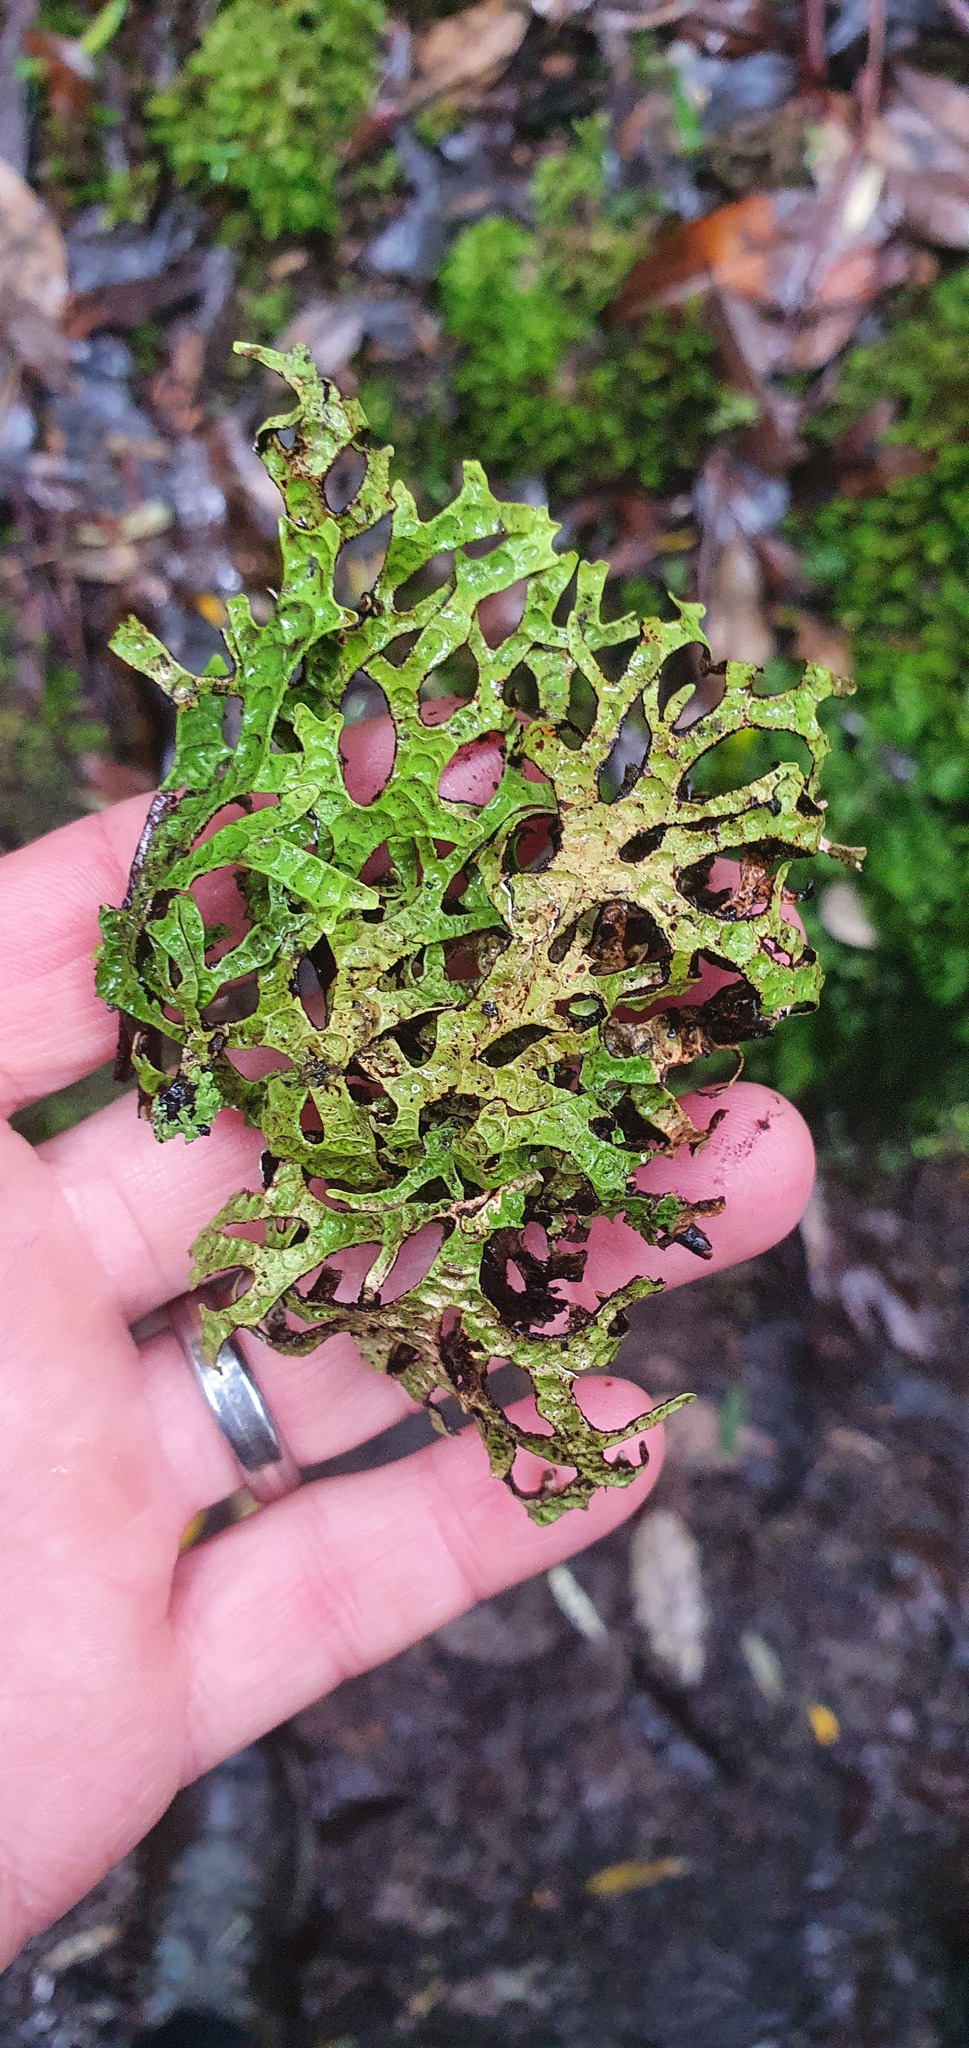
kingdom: Fungi
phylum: Ascomycota
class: Lecanoromycetes
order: Peltigerales
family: Lobariaceae
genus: Pseudocyphellaria
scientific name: Pseudocyphellaria billardierei
